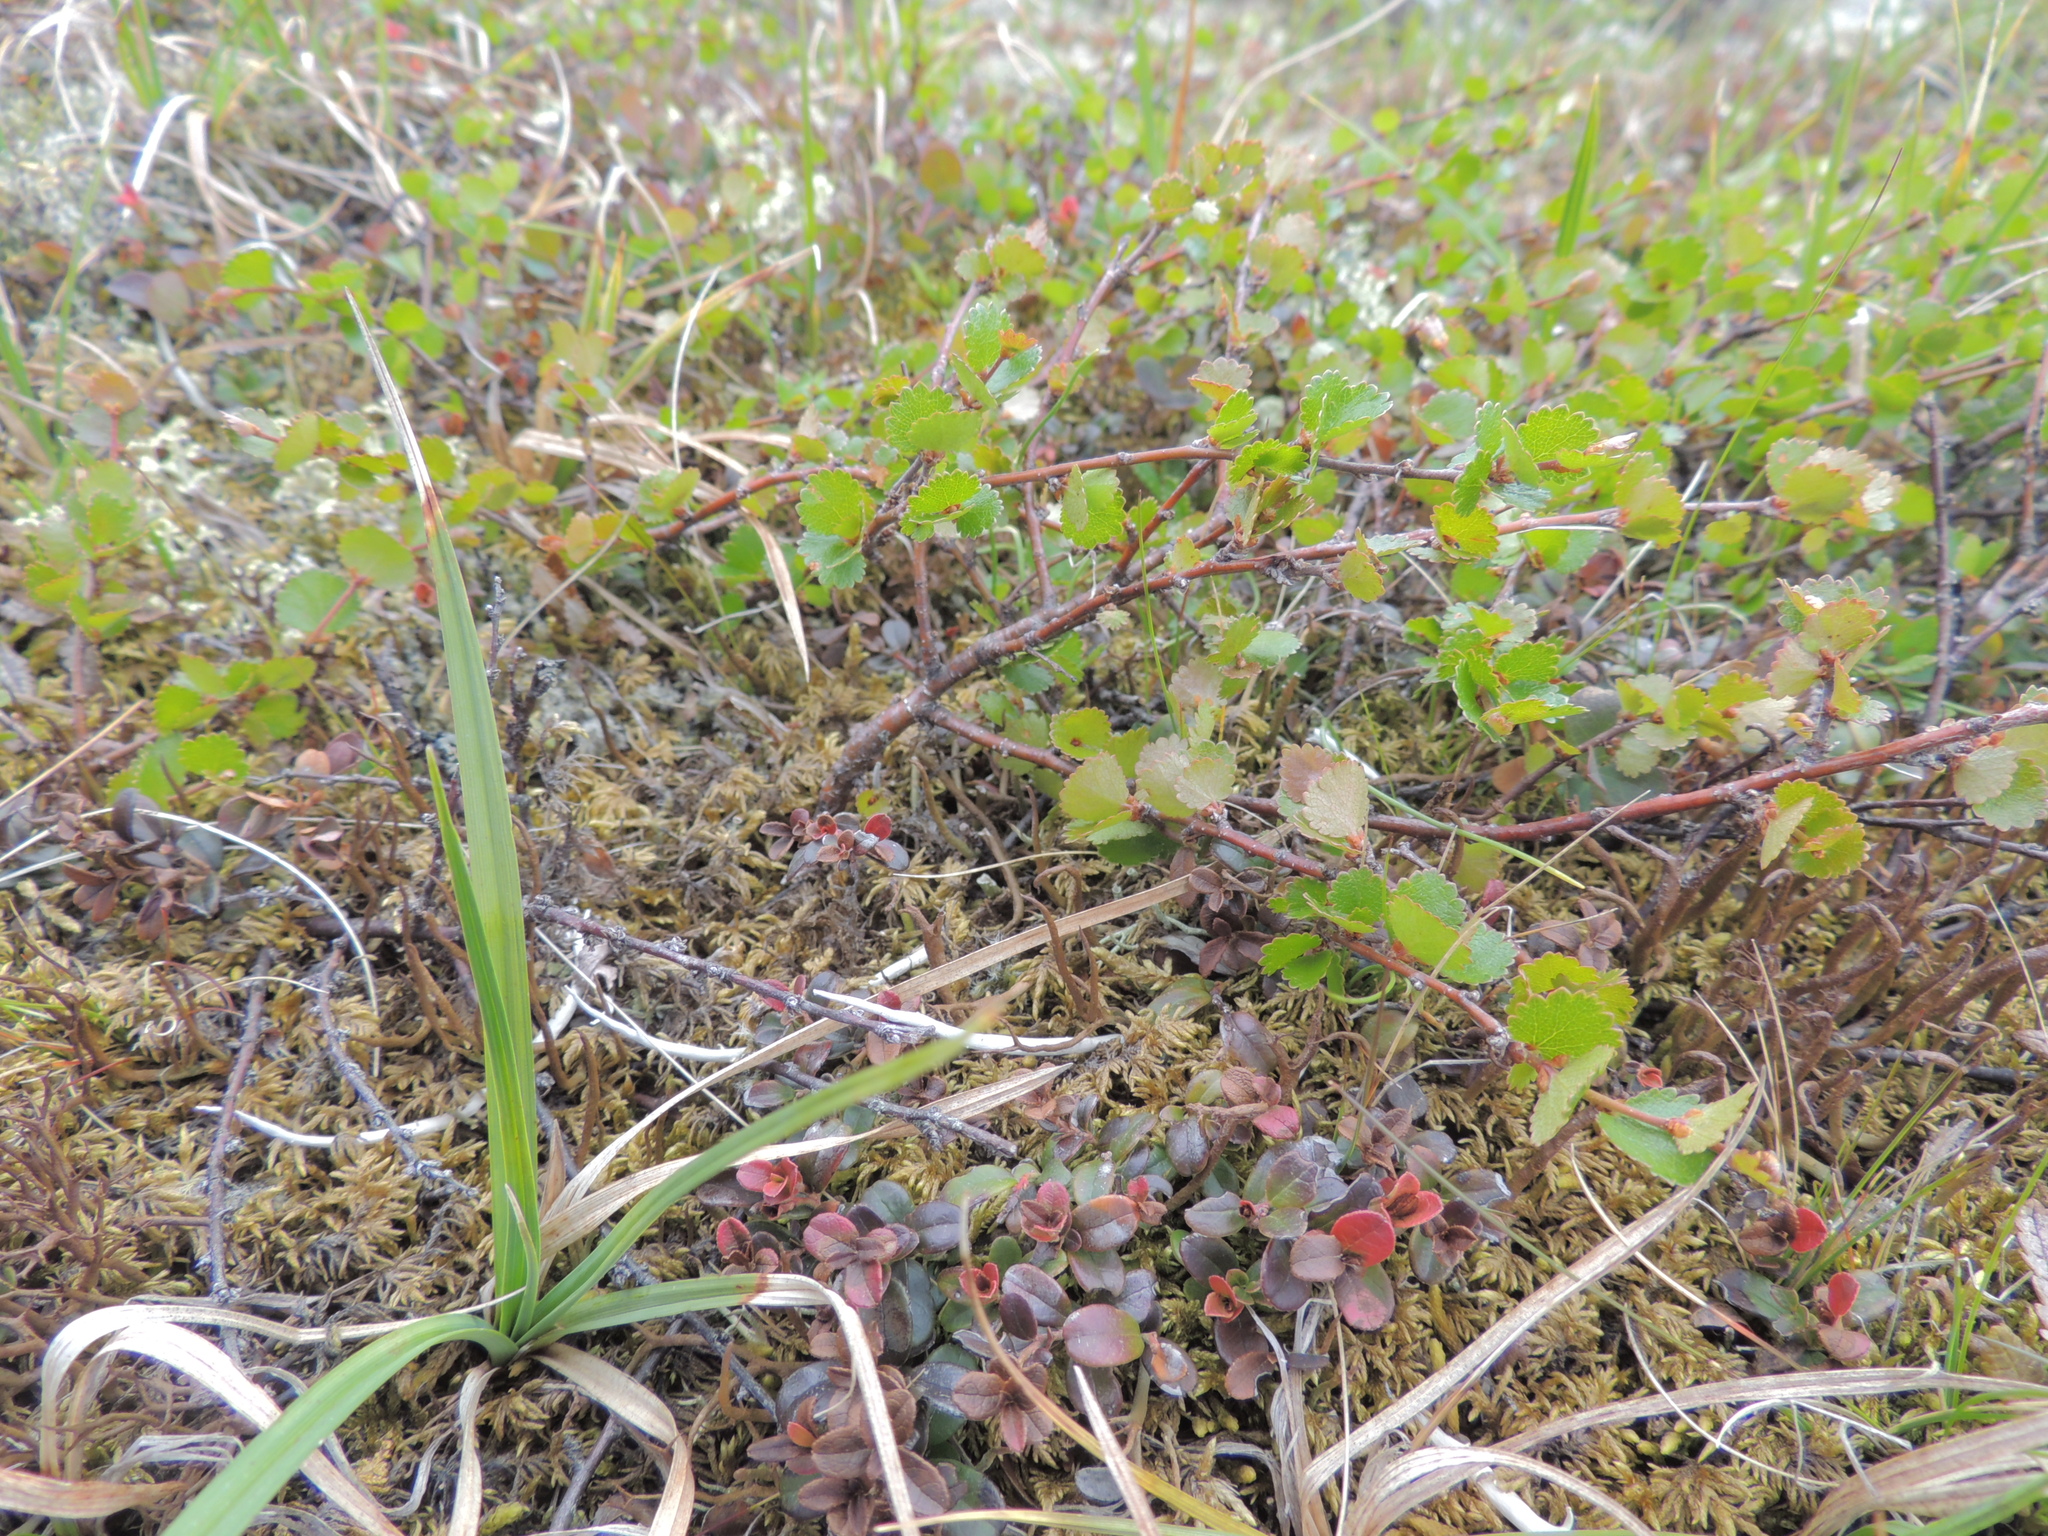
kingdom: Plantae
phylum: Tracheophyta
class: Magnoliopsida
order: Fagales
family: Betulaceae
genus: Betula
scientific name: Betula nana
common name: Arctic dwarf birch
